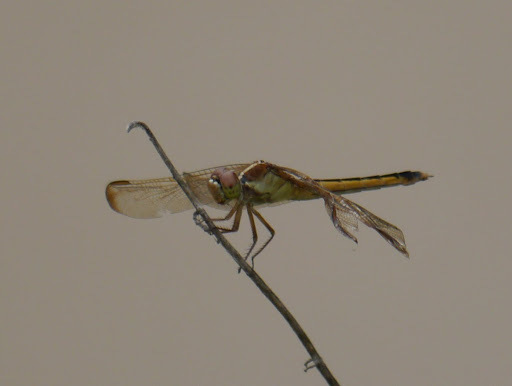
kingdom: Animalia
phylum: Arthropoda
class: Insecta
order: Odonata
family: Libellulidae
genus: Libellula
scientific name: Libellula needhami
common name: Needham's skimmer
